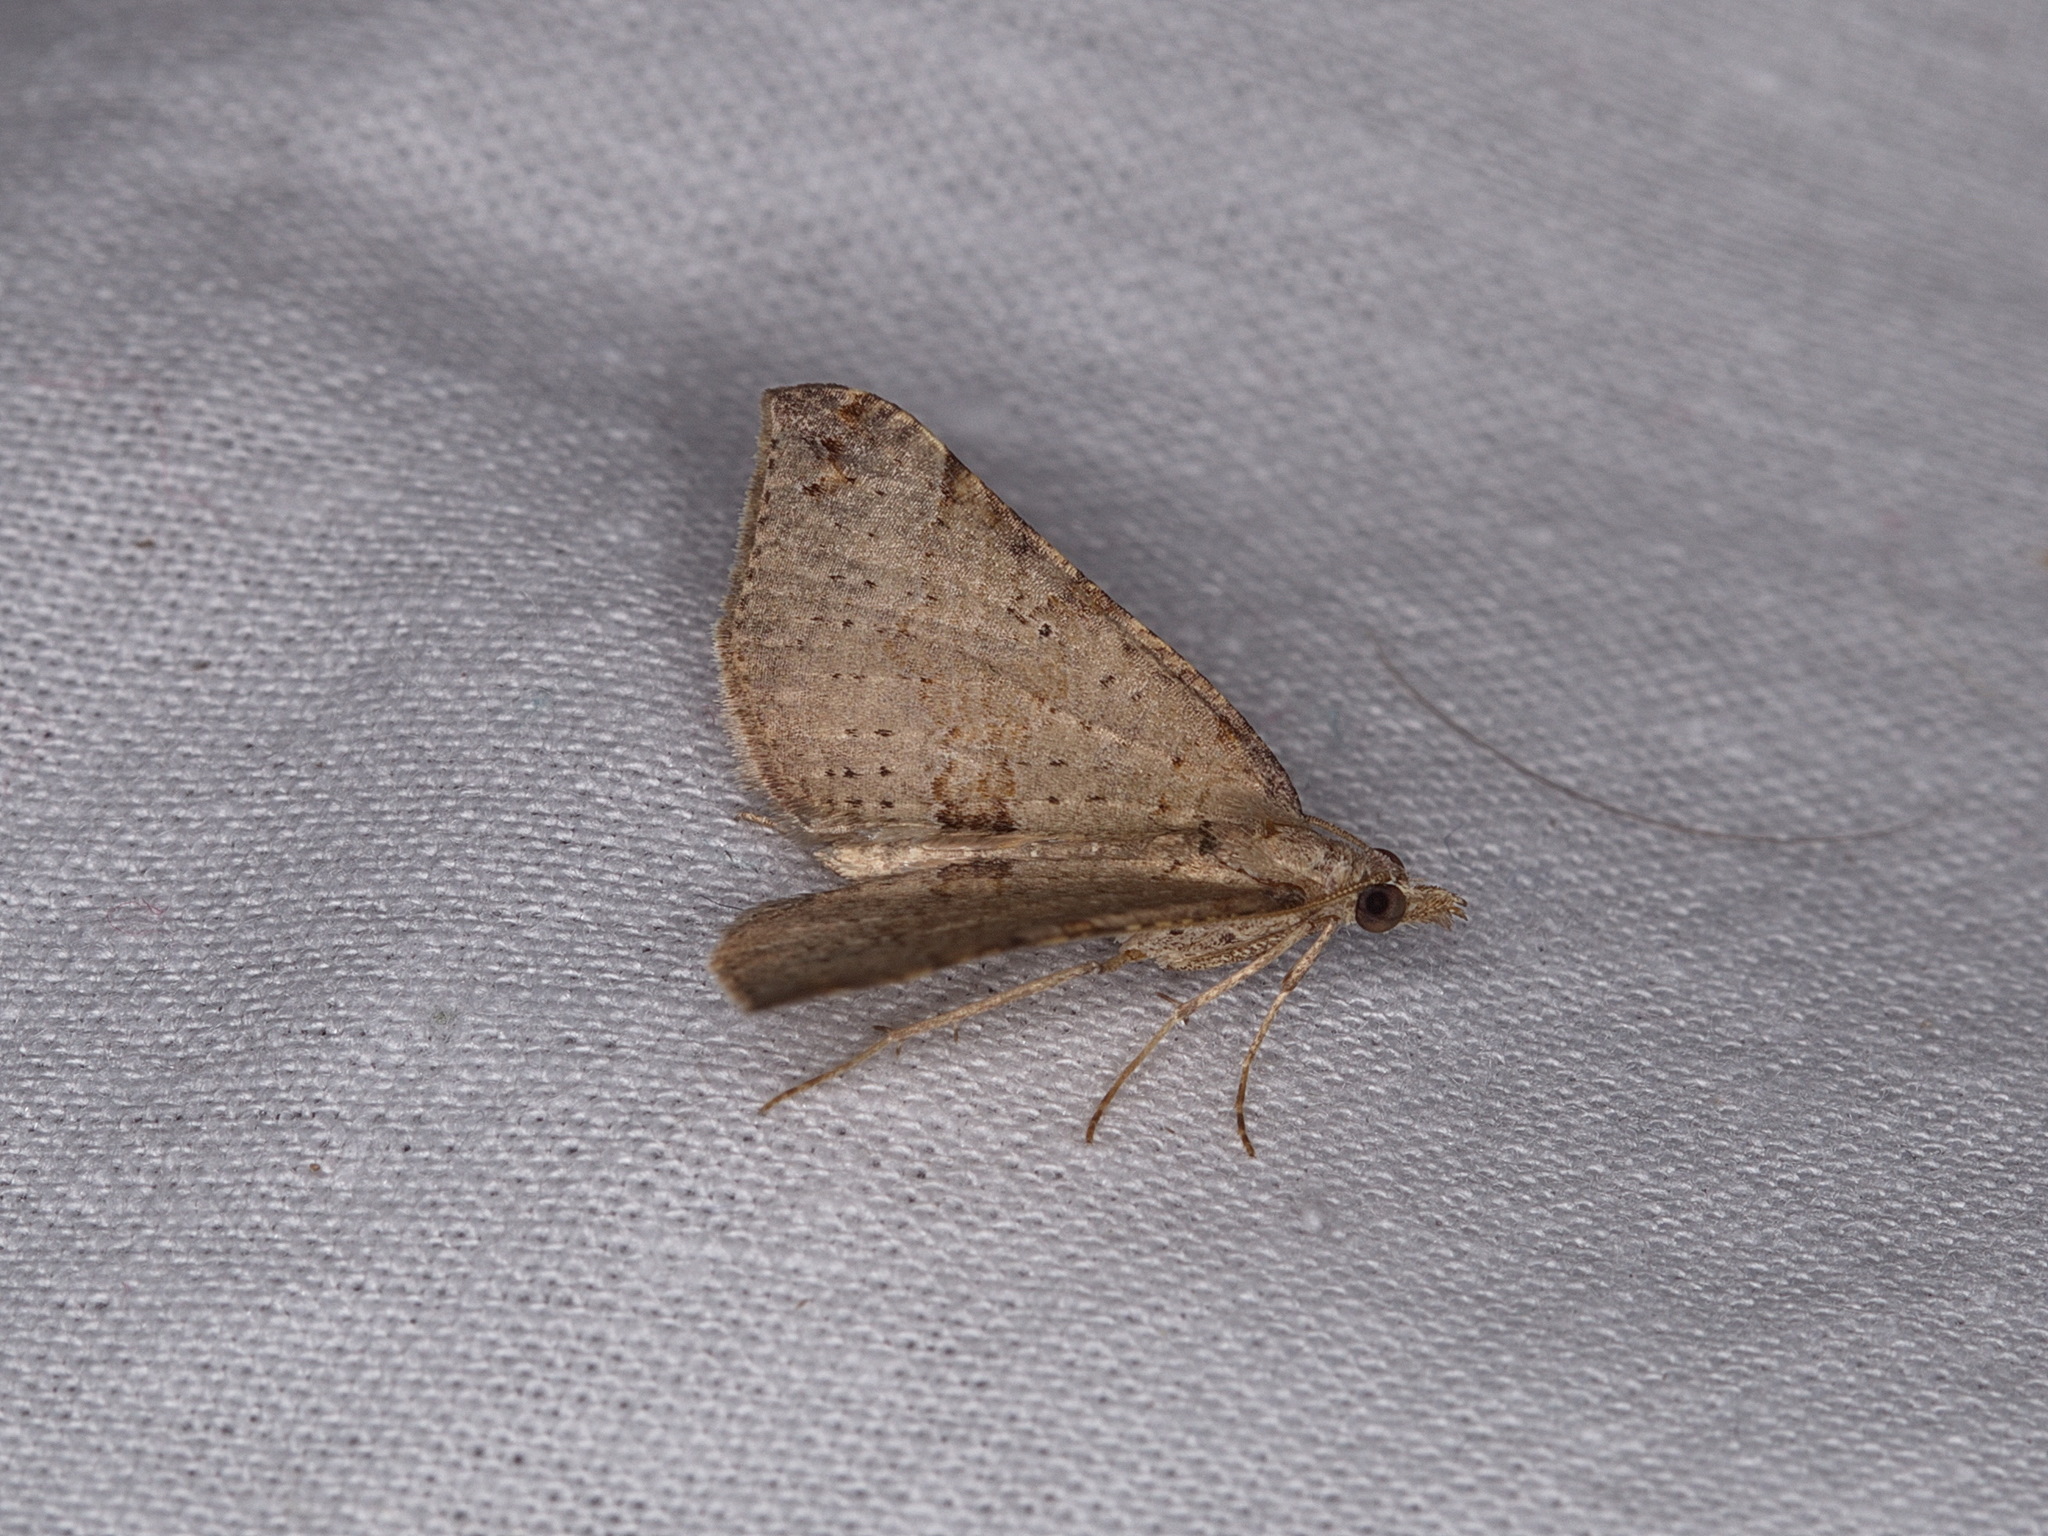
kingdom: Animalia
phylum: Arthropoda
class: Insecta
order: Lepidoptera
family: Geometridae
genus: Anachloris
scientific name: Anachloris uncinata
